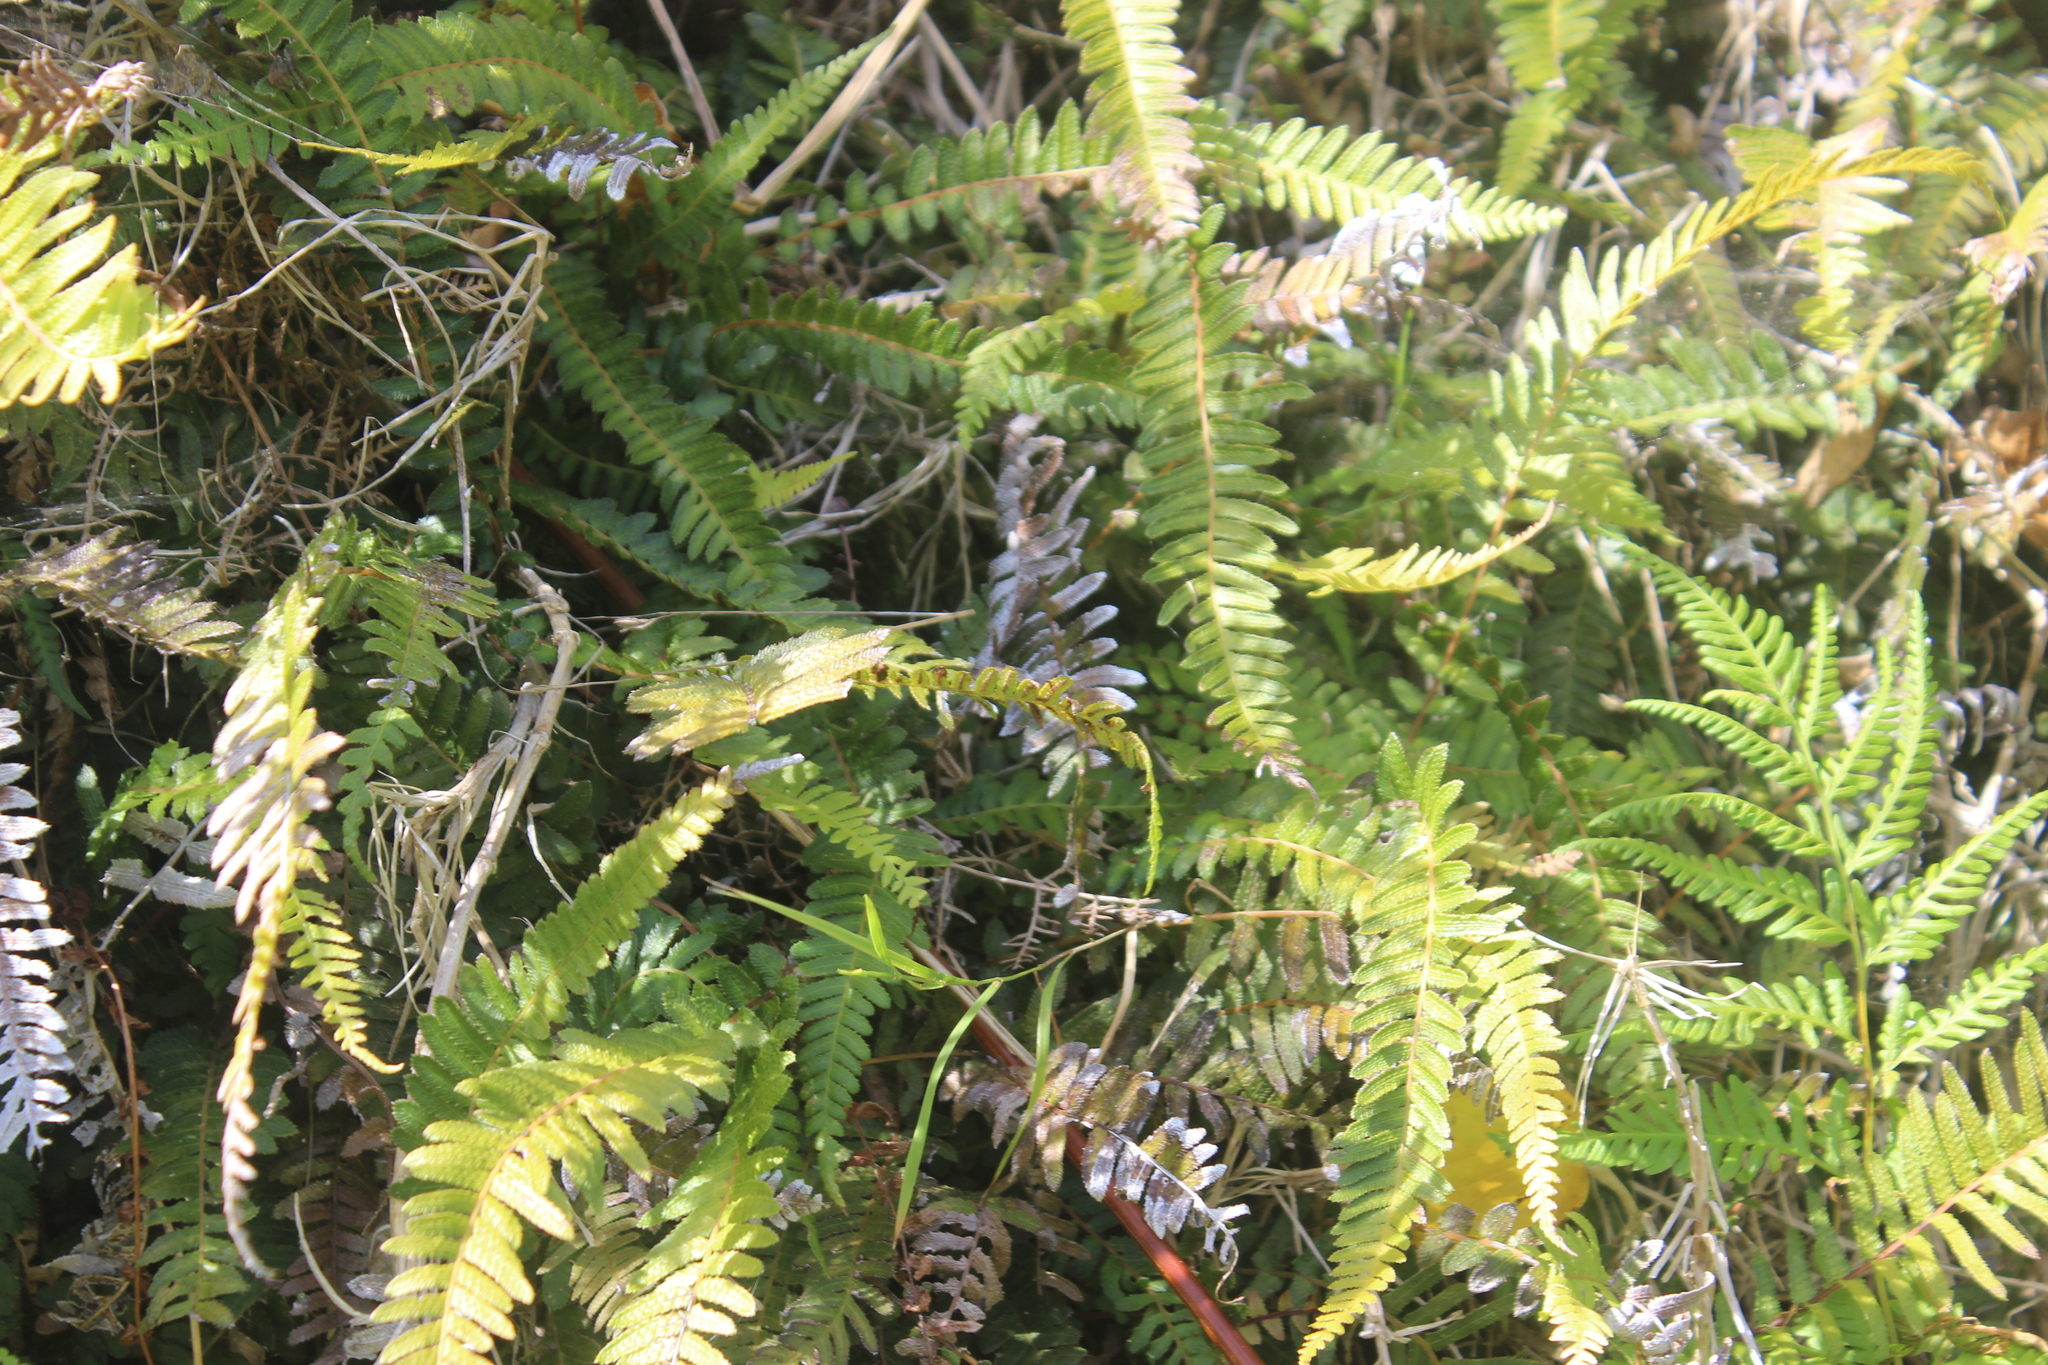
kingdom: Plantae
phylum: Tracheophyta
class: Polypodiopsida
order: Polypodiales
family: Blechnaceae
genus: Doodia
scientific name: Doodia australis
